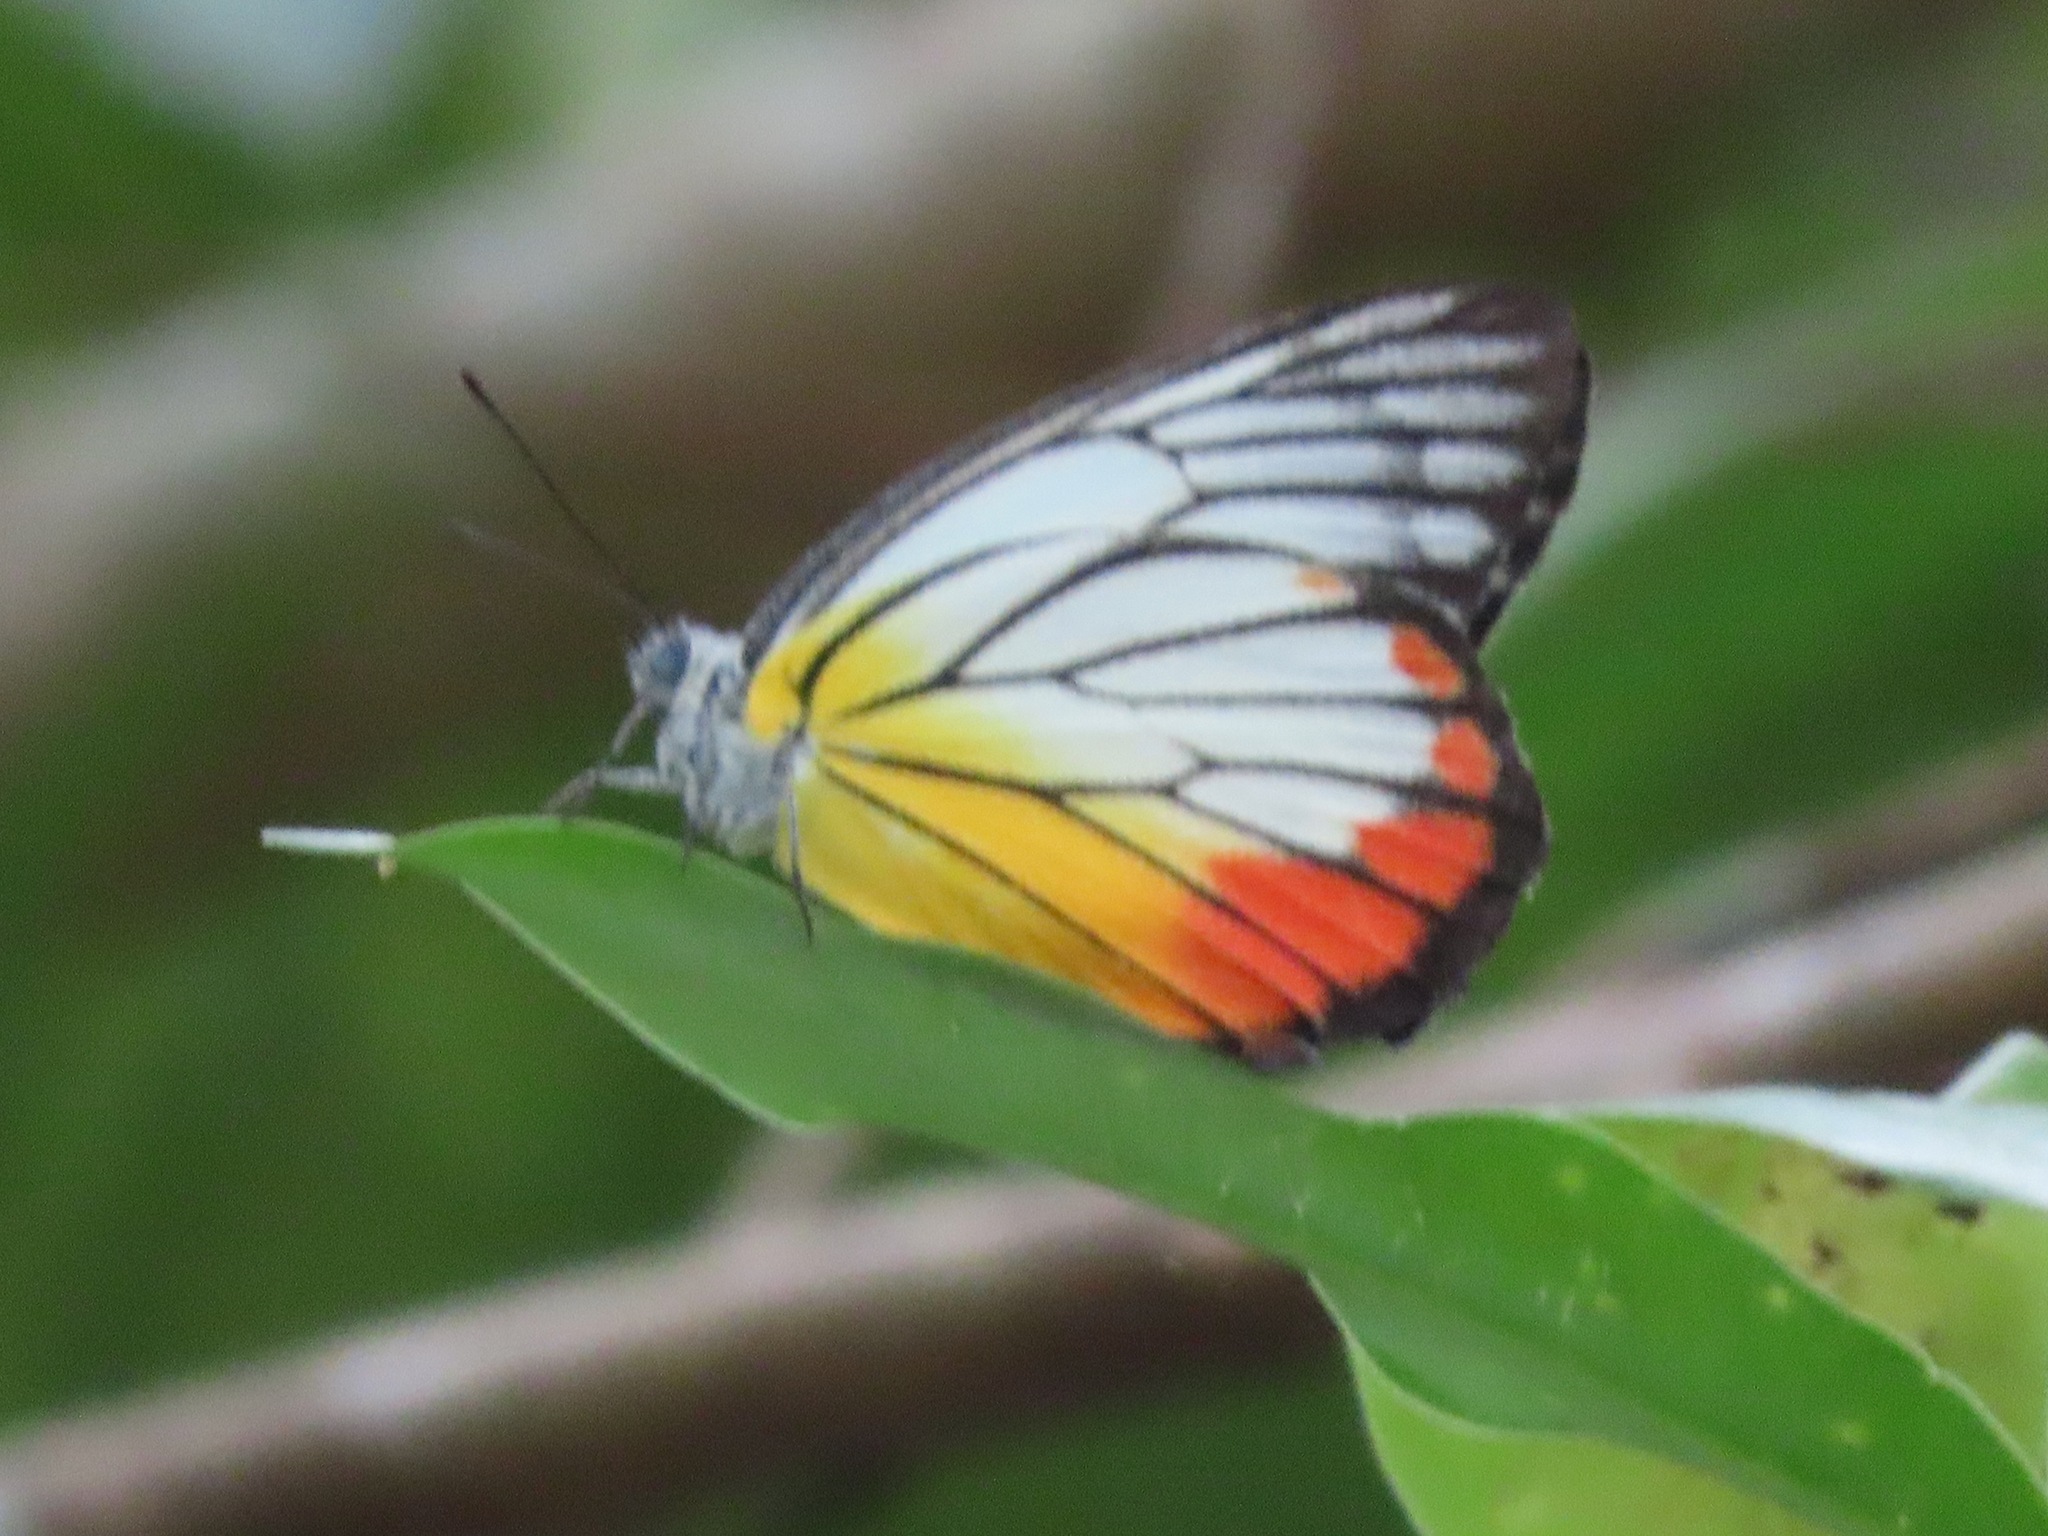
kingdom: Animalia
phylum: Arthropoda
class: Insecta
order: Lepidoptera
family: Pieridae
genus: Delias
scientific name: Delias hyparete
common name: Painted jezebel
